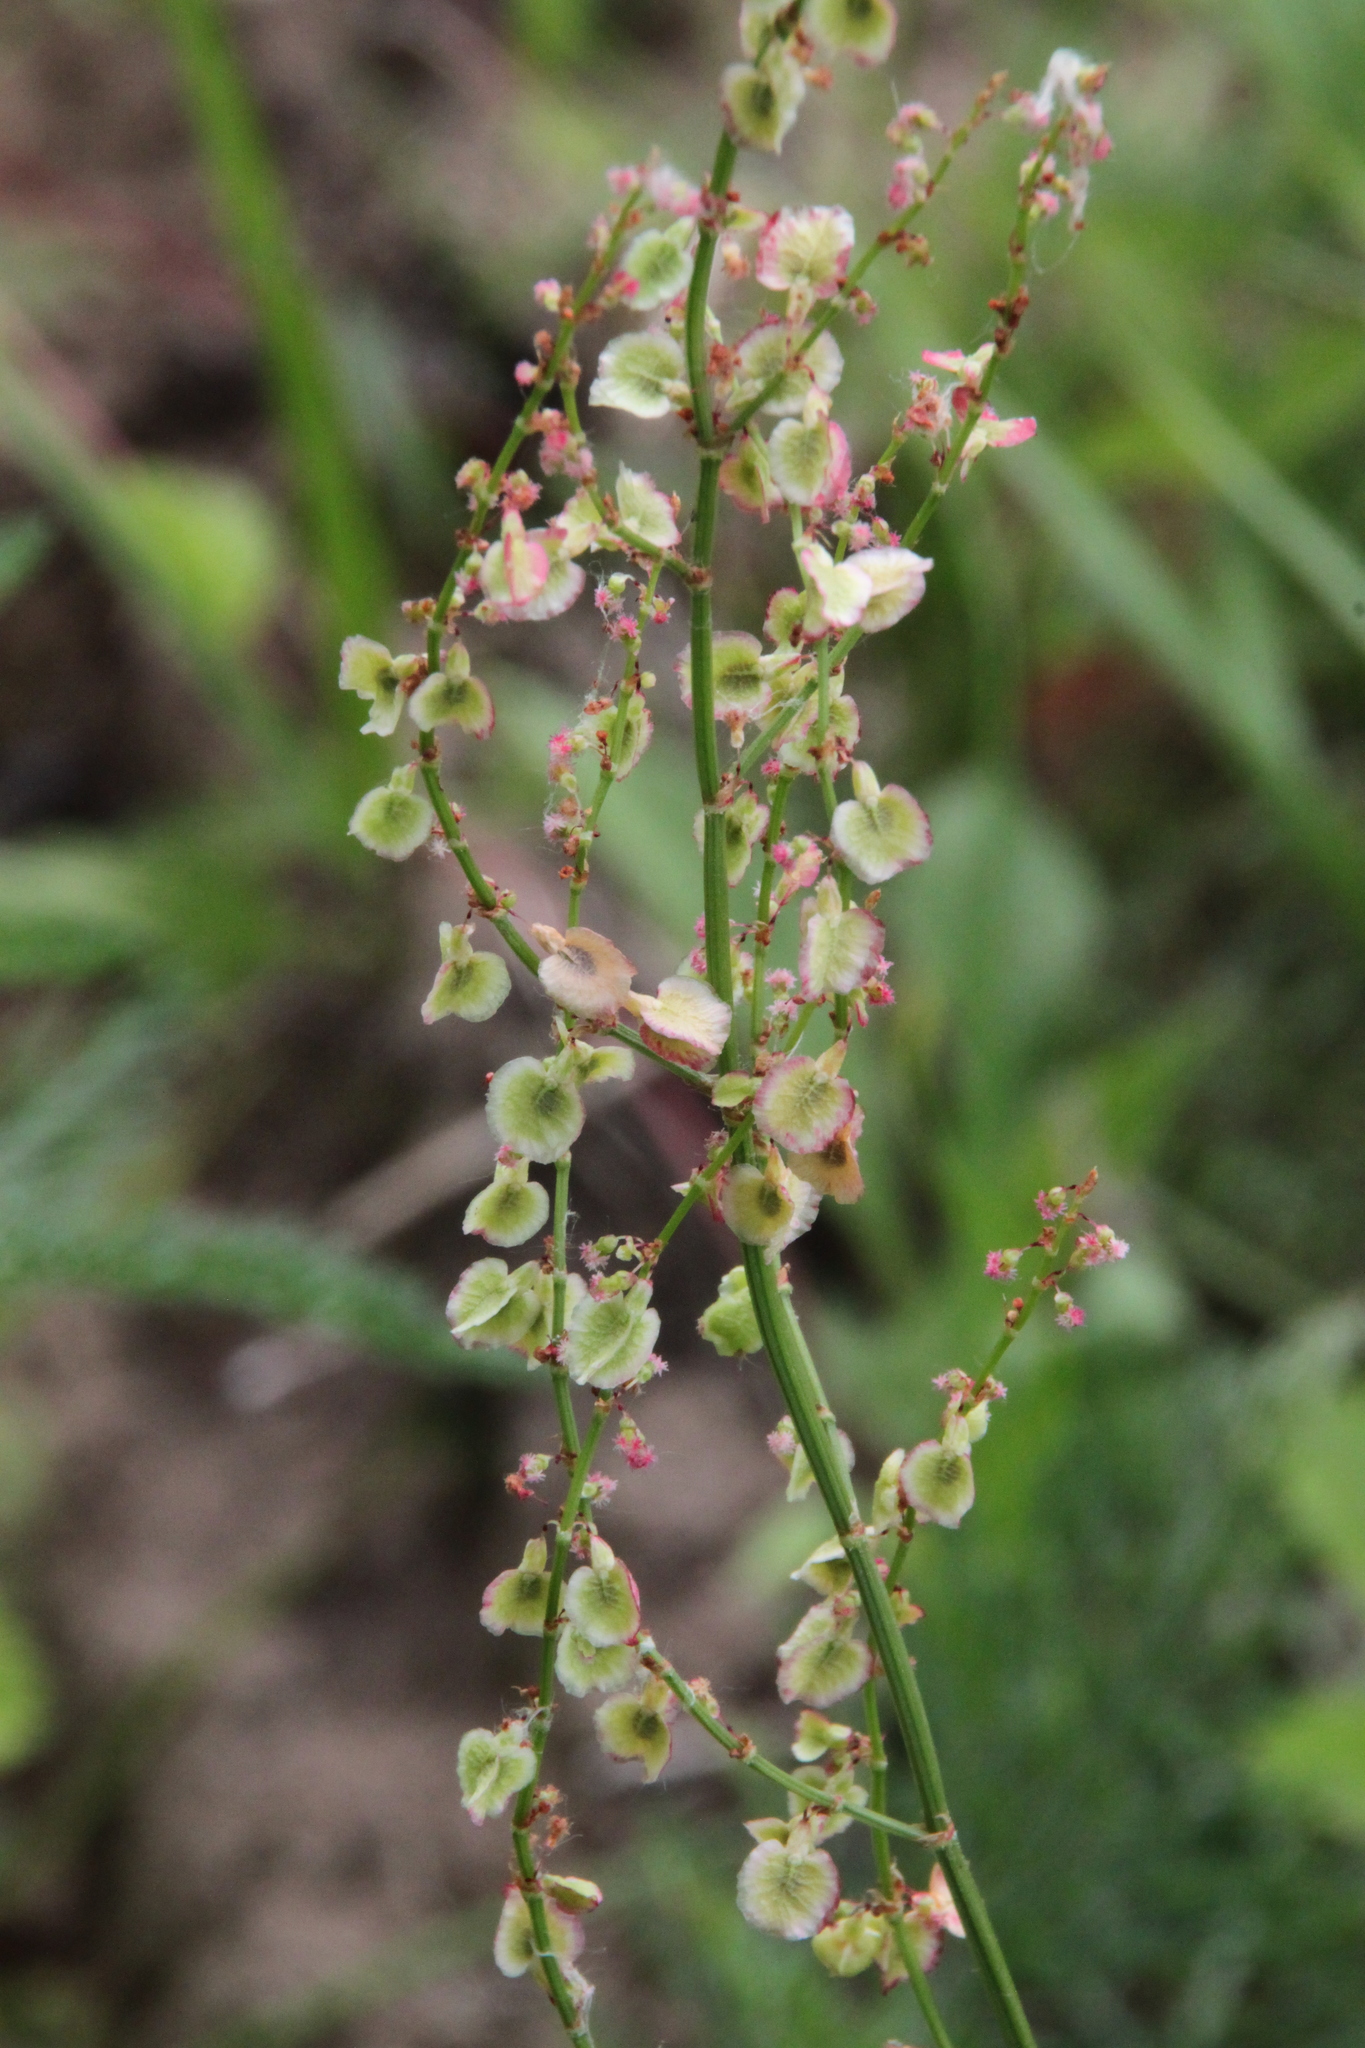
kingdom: Plantae
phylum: Tracheophyta
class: Magnoliopsida
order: Caryophyllales
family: Polygonaceae
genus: Rumex
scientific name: Rumex acetosa
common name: Garden sorrel
